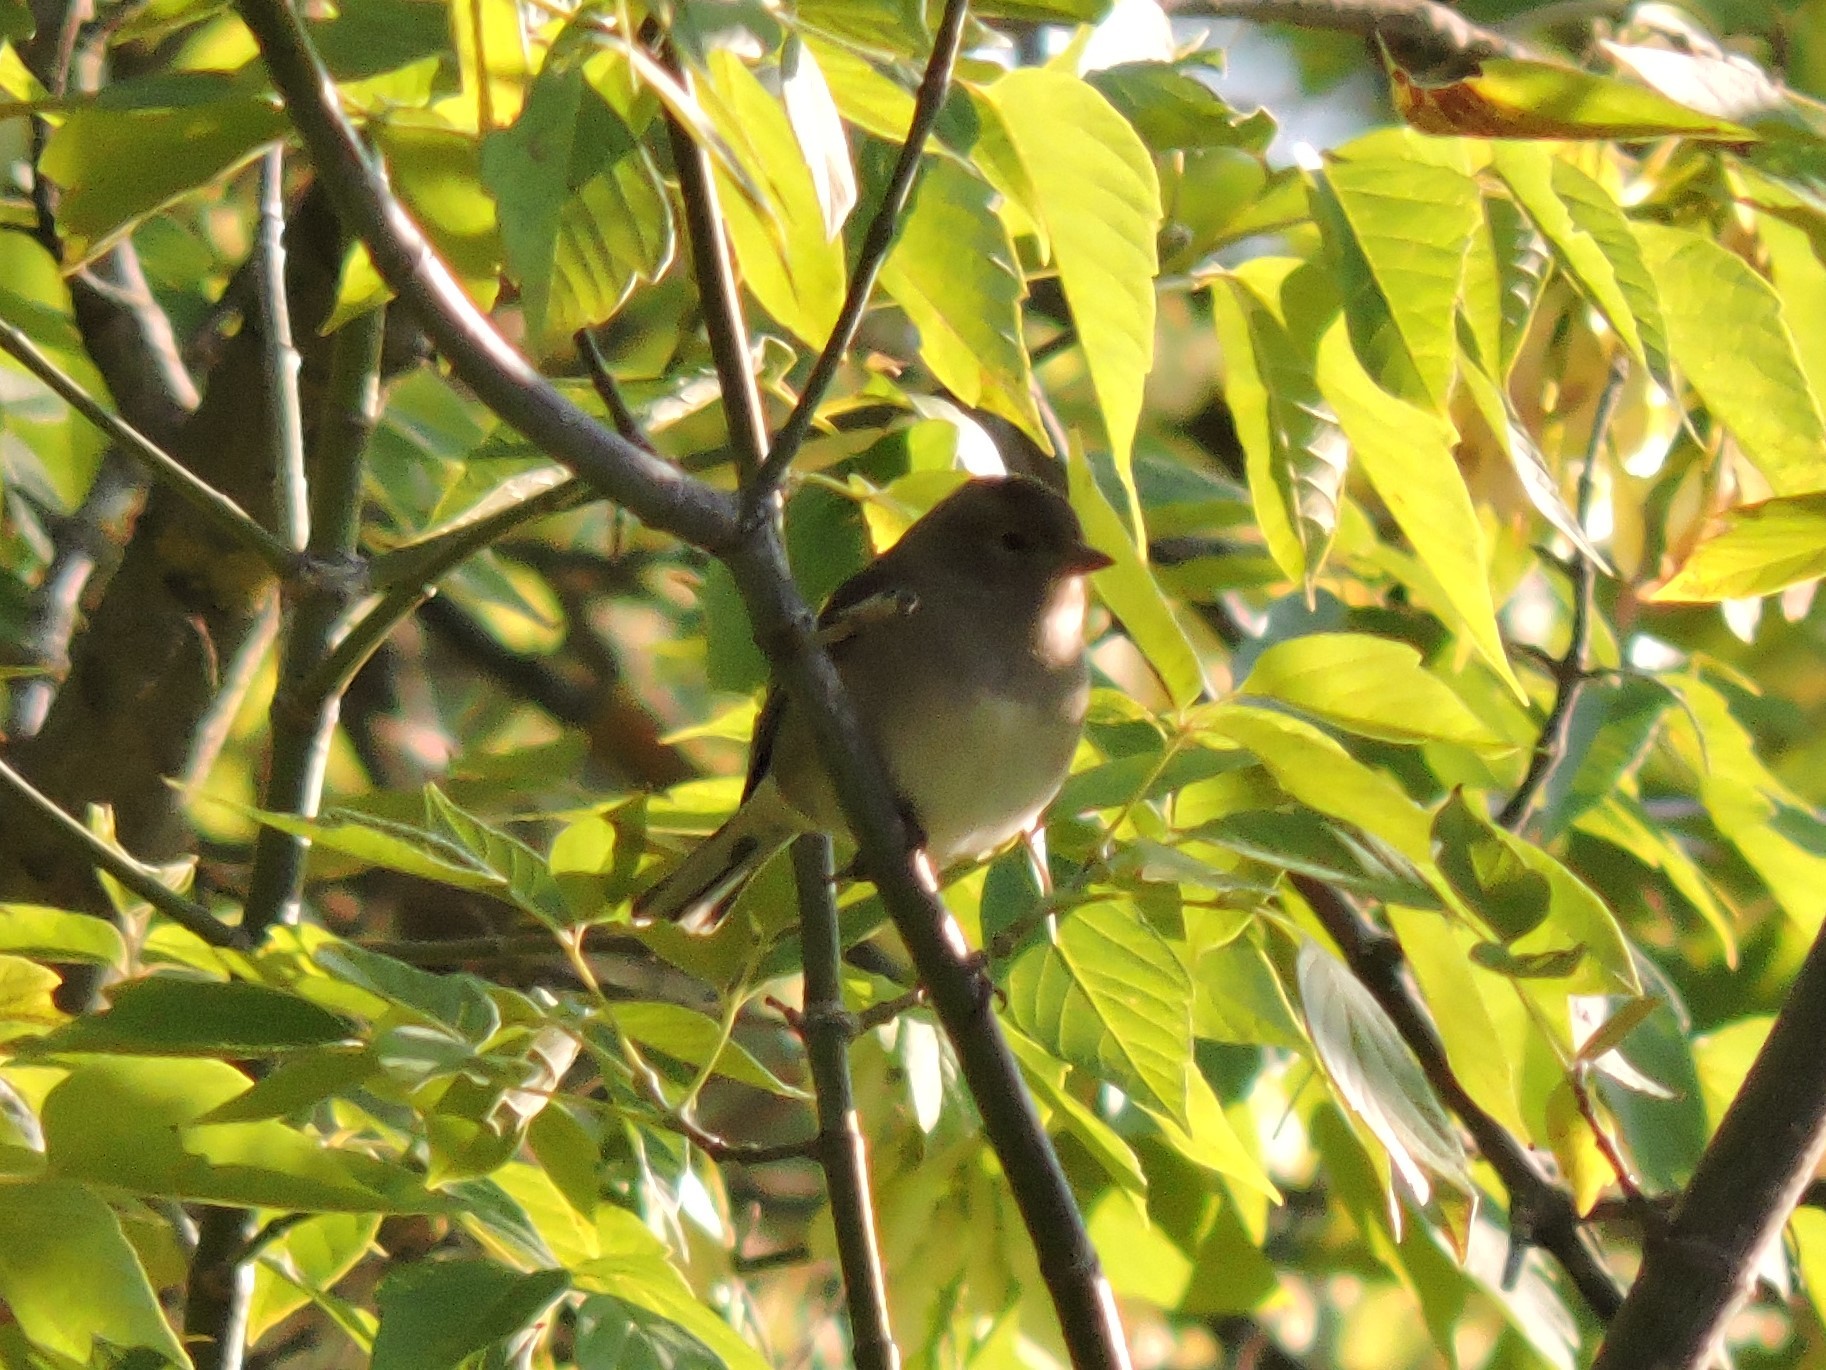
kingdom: Animalia
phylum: Chordata
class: Aves
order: Passeriformes
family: Fringillidae
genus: Fringilla
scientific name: Fringilla coelebs
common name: Common chaffinch
